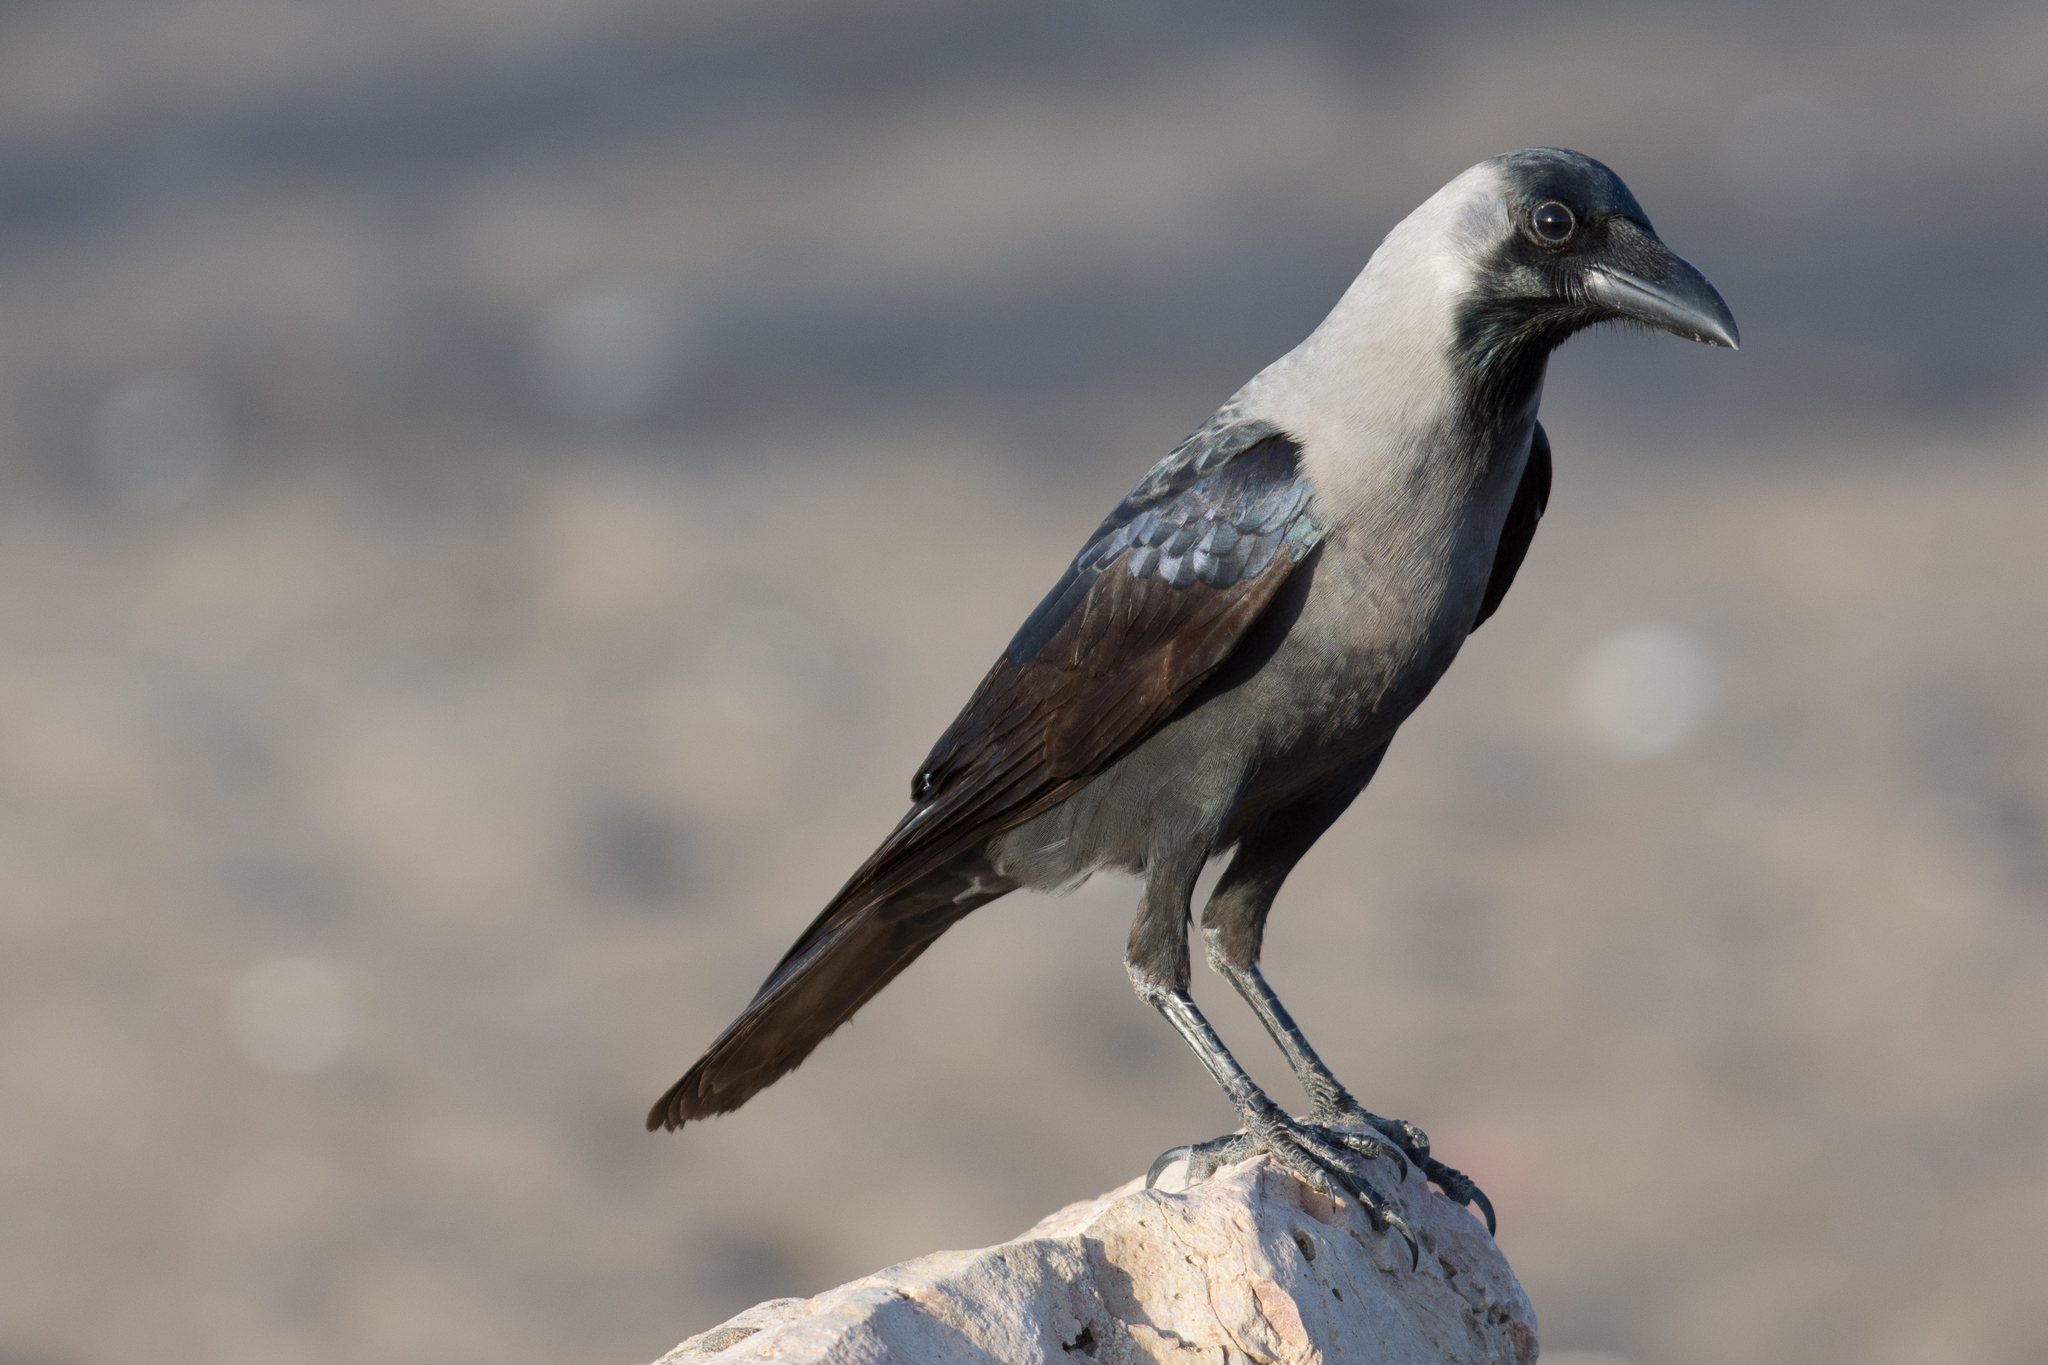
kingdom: Animalia
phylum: Chordata
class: Aves
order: Passeriformes
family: Corvidae
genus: Corvus
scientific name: Corvus splendens
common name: House crow
